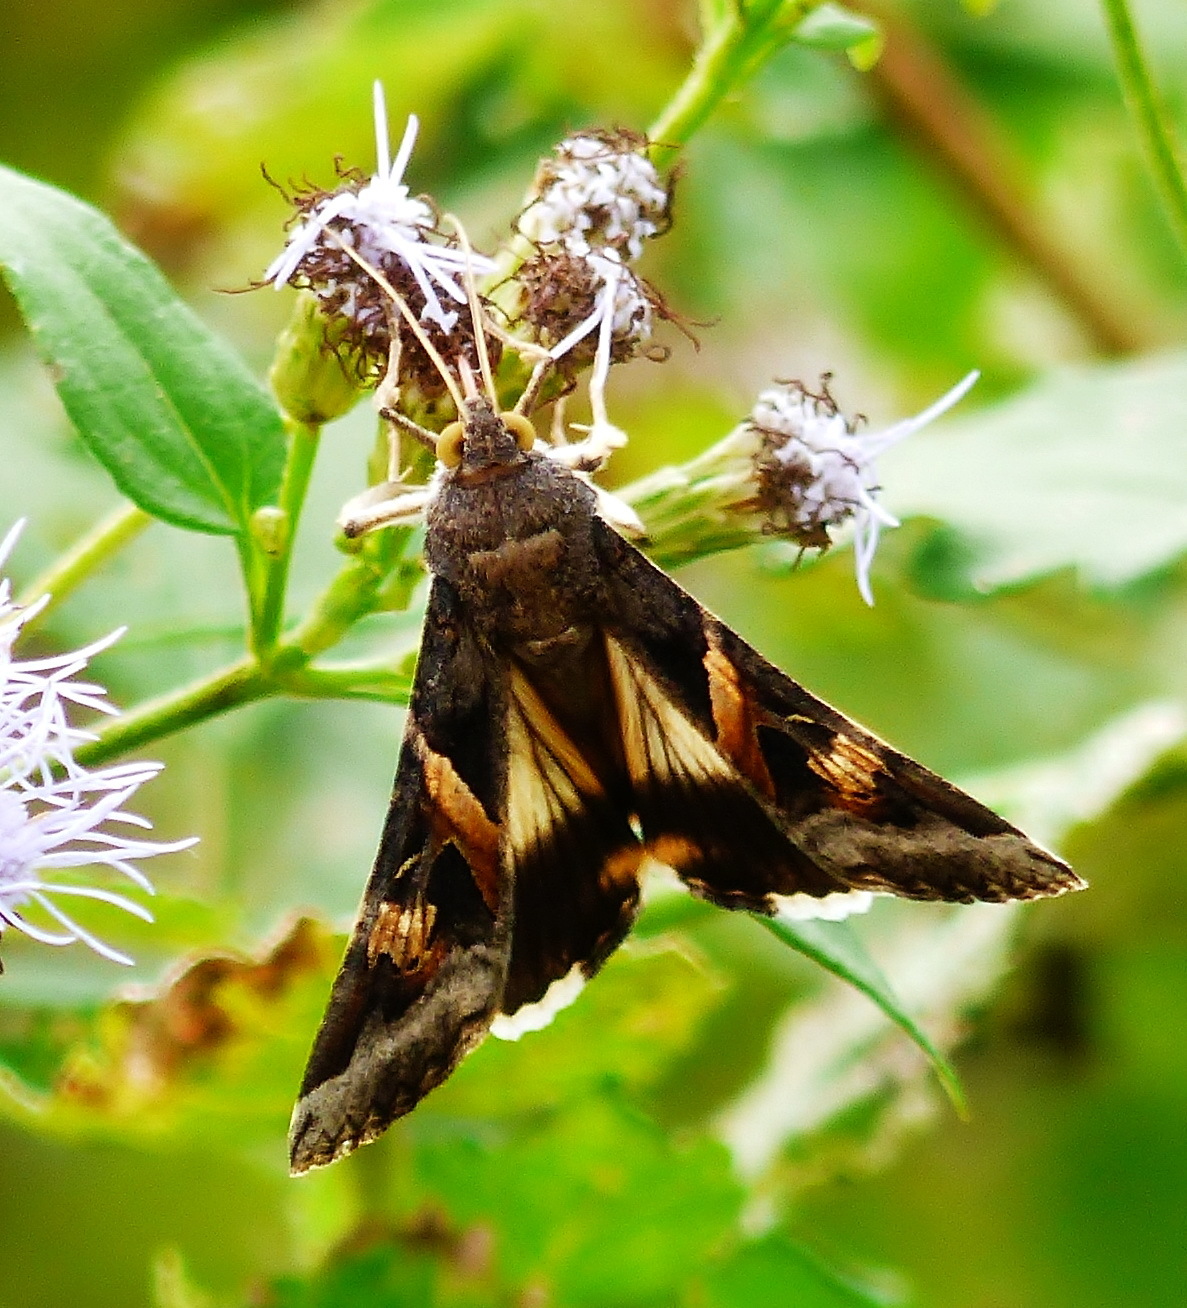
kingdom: Animalia
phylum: Arthropoda
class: Insecta
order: Lepidoptera
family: Erebidae
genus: Melipotis
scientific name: Melipotis indomita
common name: Moth
